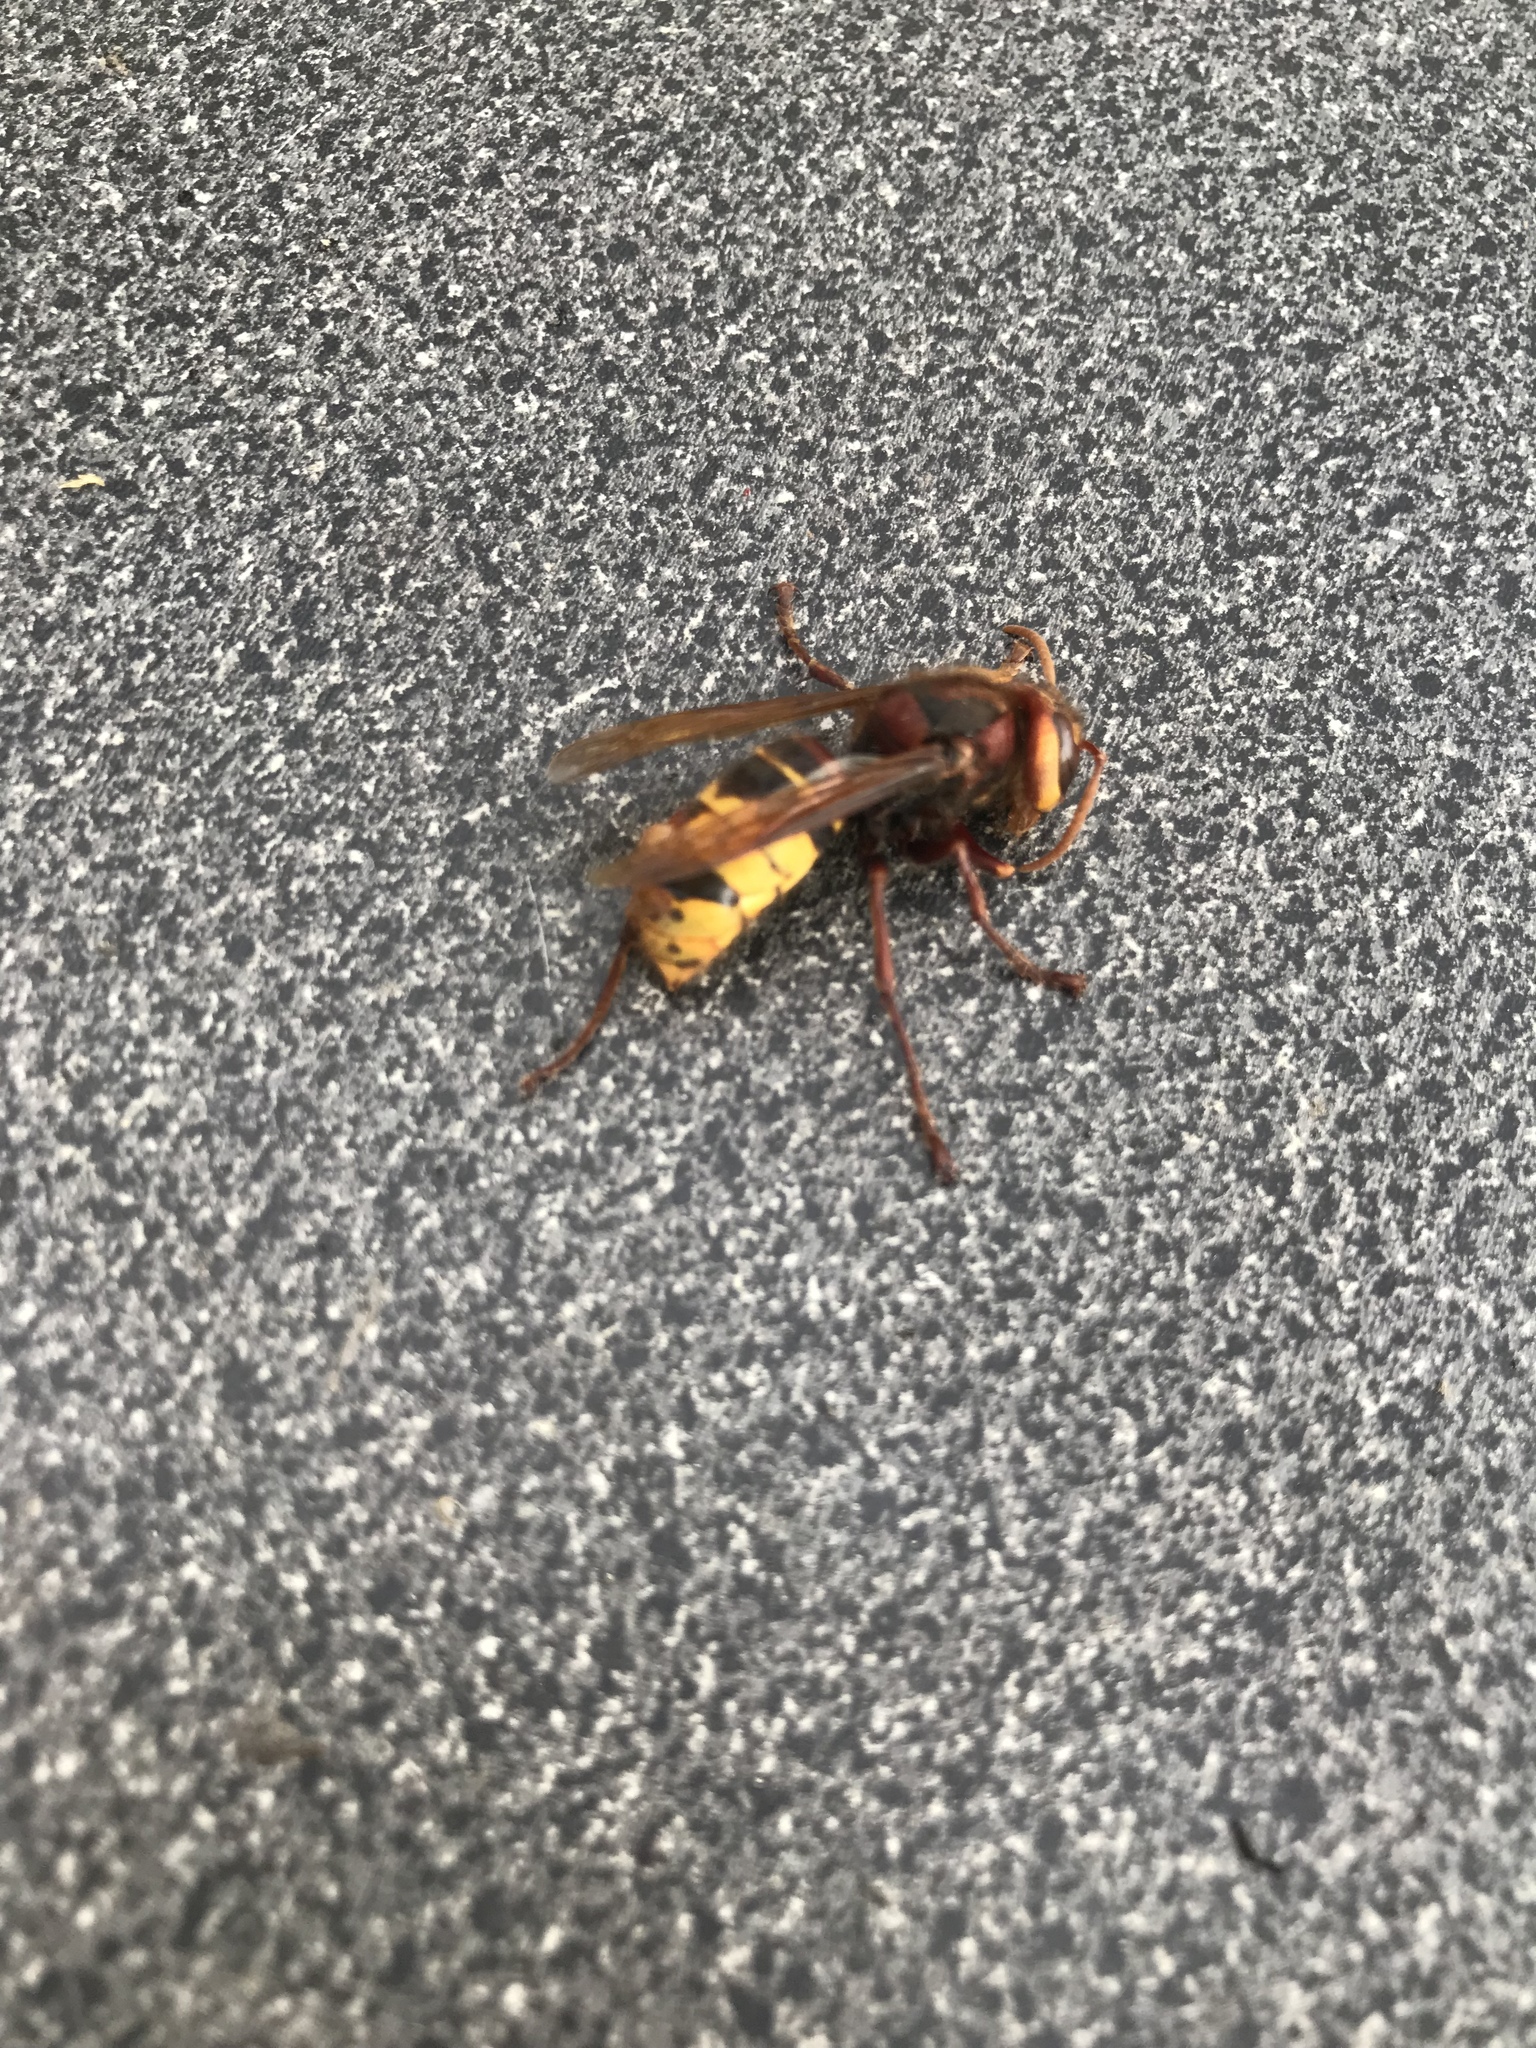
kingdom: Animalia
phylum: Arthropoda
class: Insecta
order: Hymenoptera
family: Vespidae
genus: Vespa
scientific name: Vespa crabro
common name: Hornet
